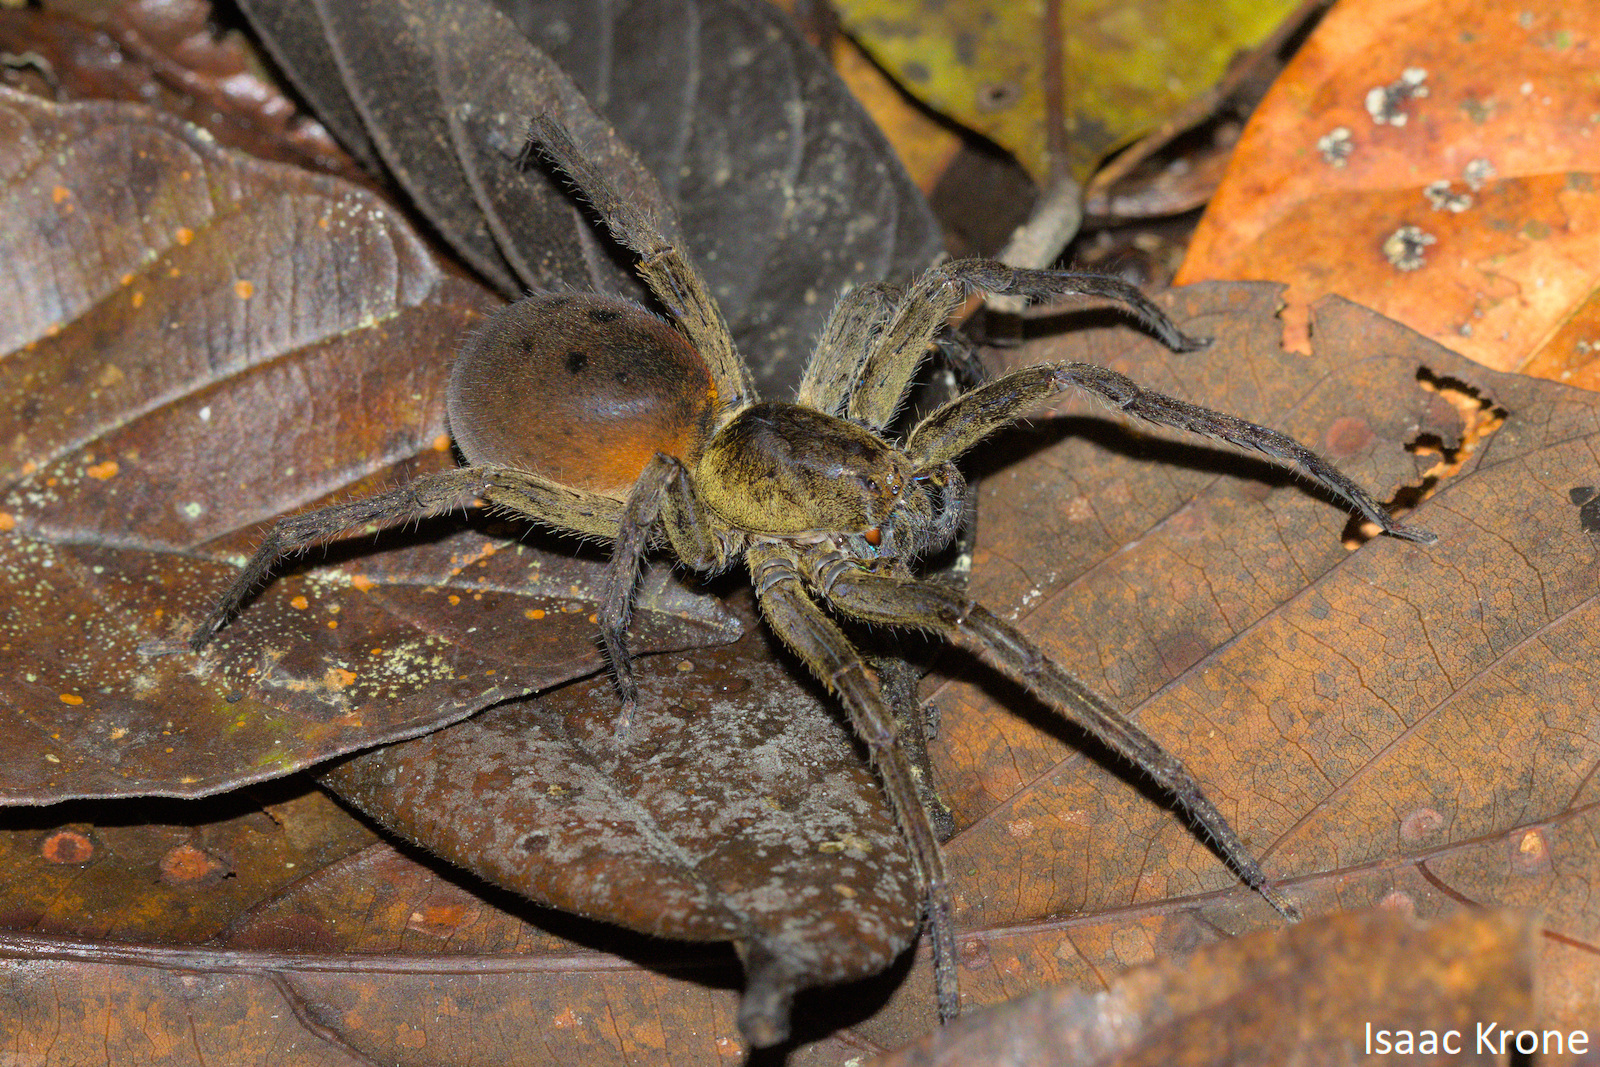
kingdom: Animalia
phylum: Arthropoda
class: Arachnida
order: Araneae
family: Ctenidae
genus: Ctenus
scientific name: Ctenus villasboasi
